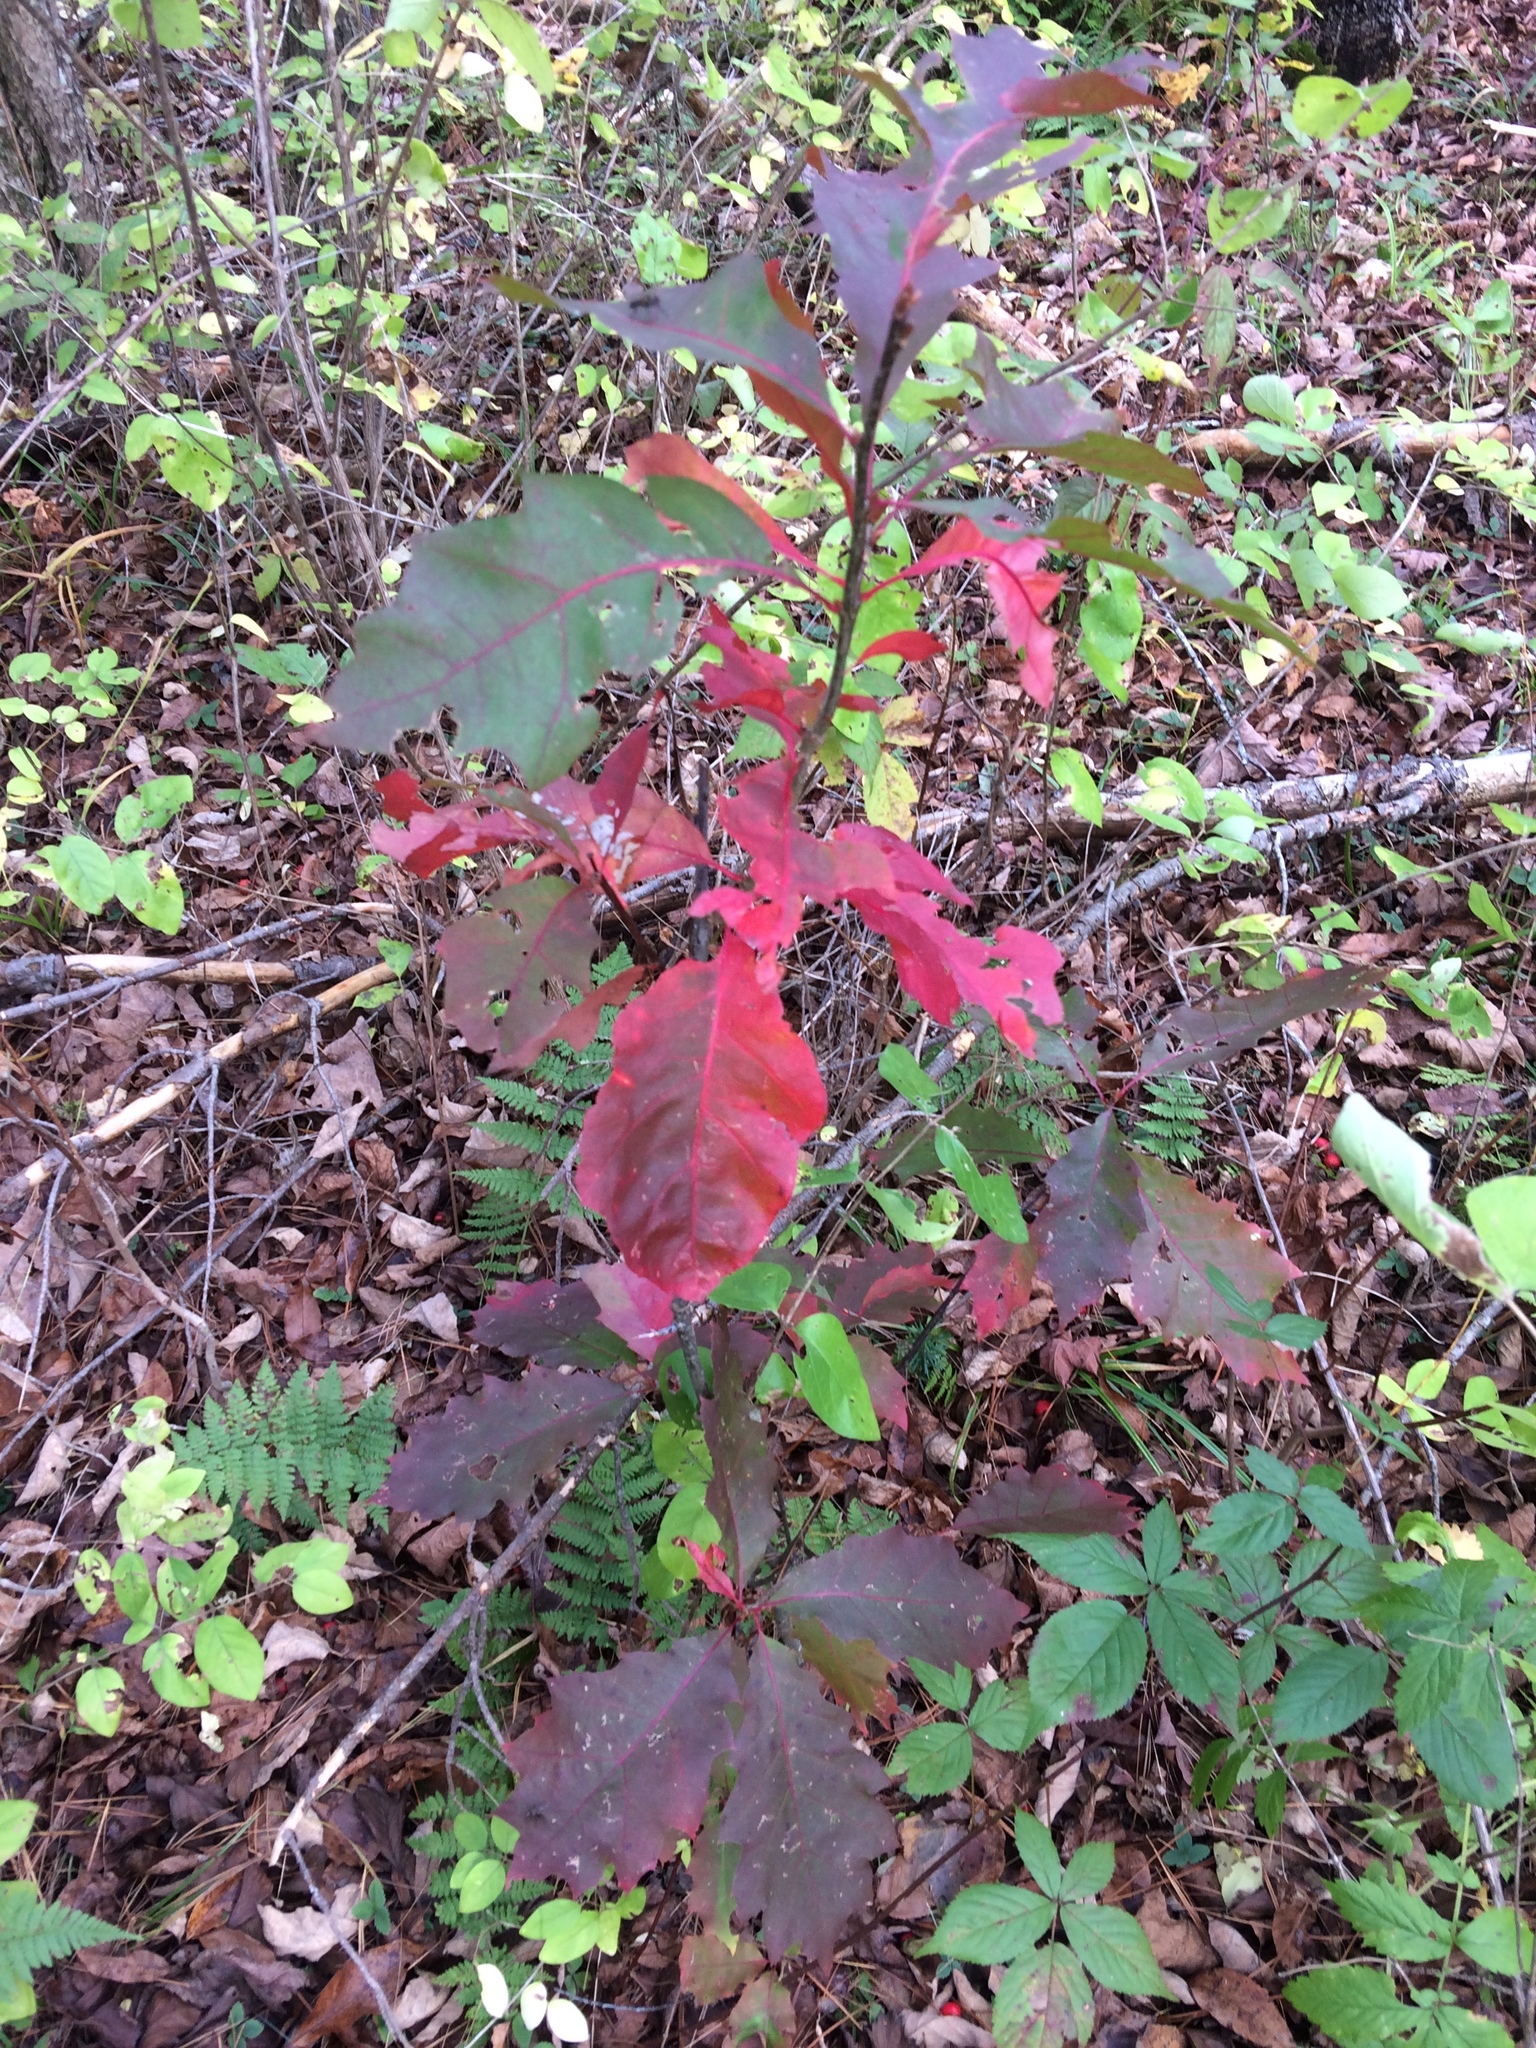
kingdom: Plantae
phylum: Tracheophyta
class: Magnoliopsida
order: Fagales
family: Fagaceae
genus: Quercus
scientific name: Quercus rubra
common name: Red oak
